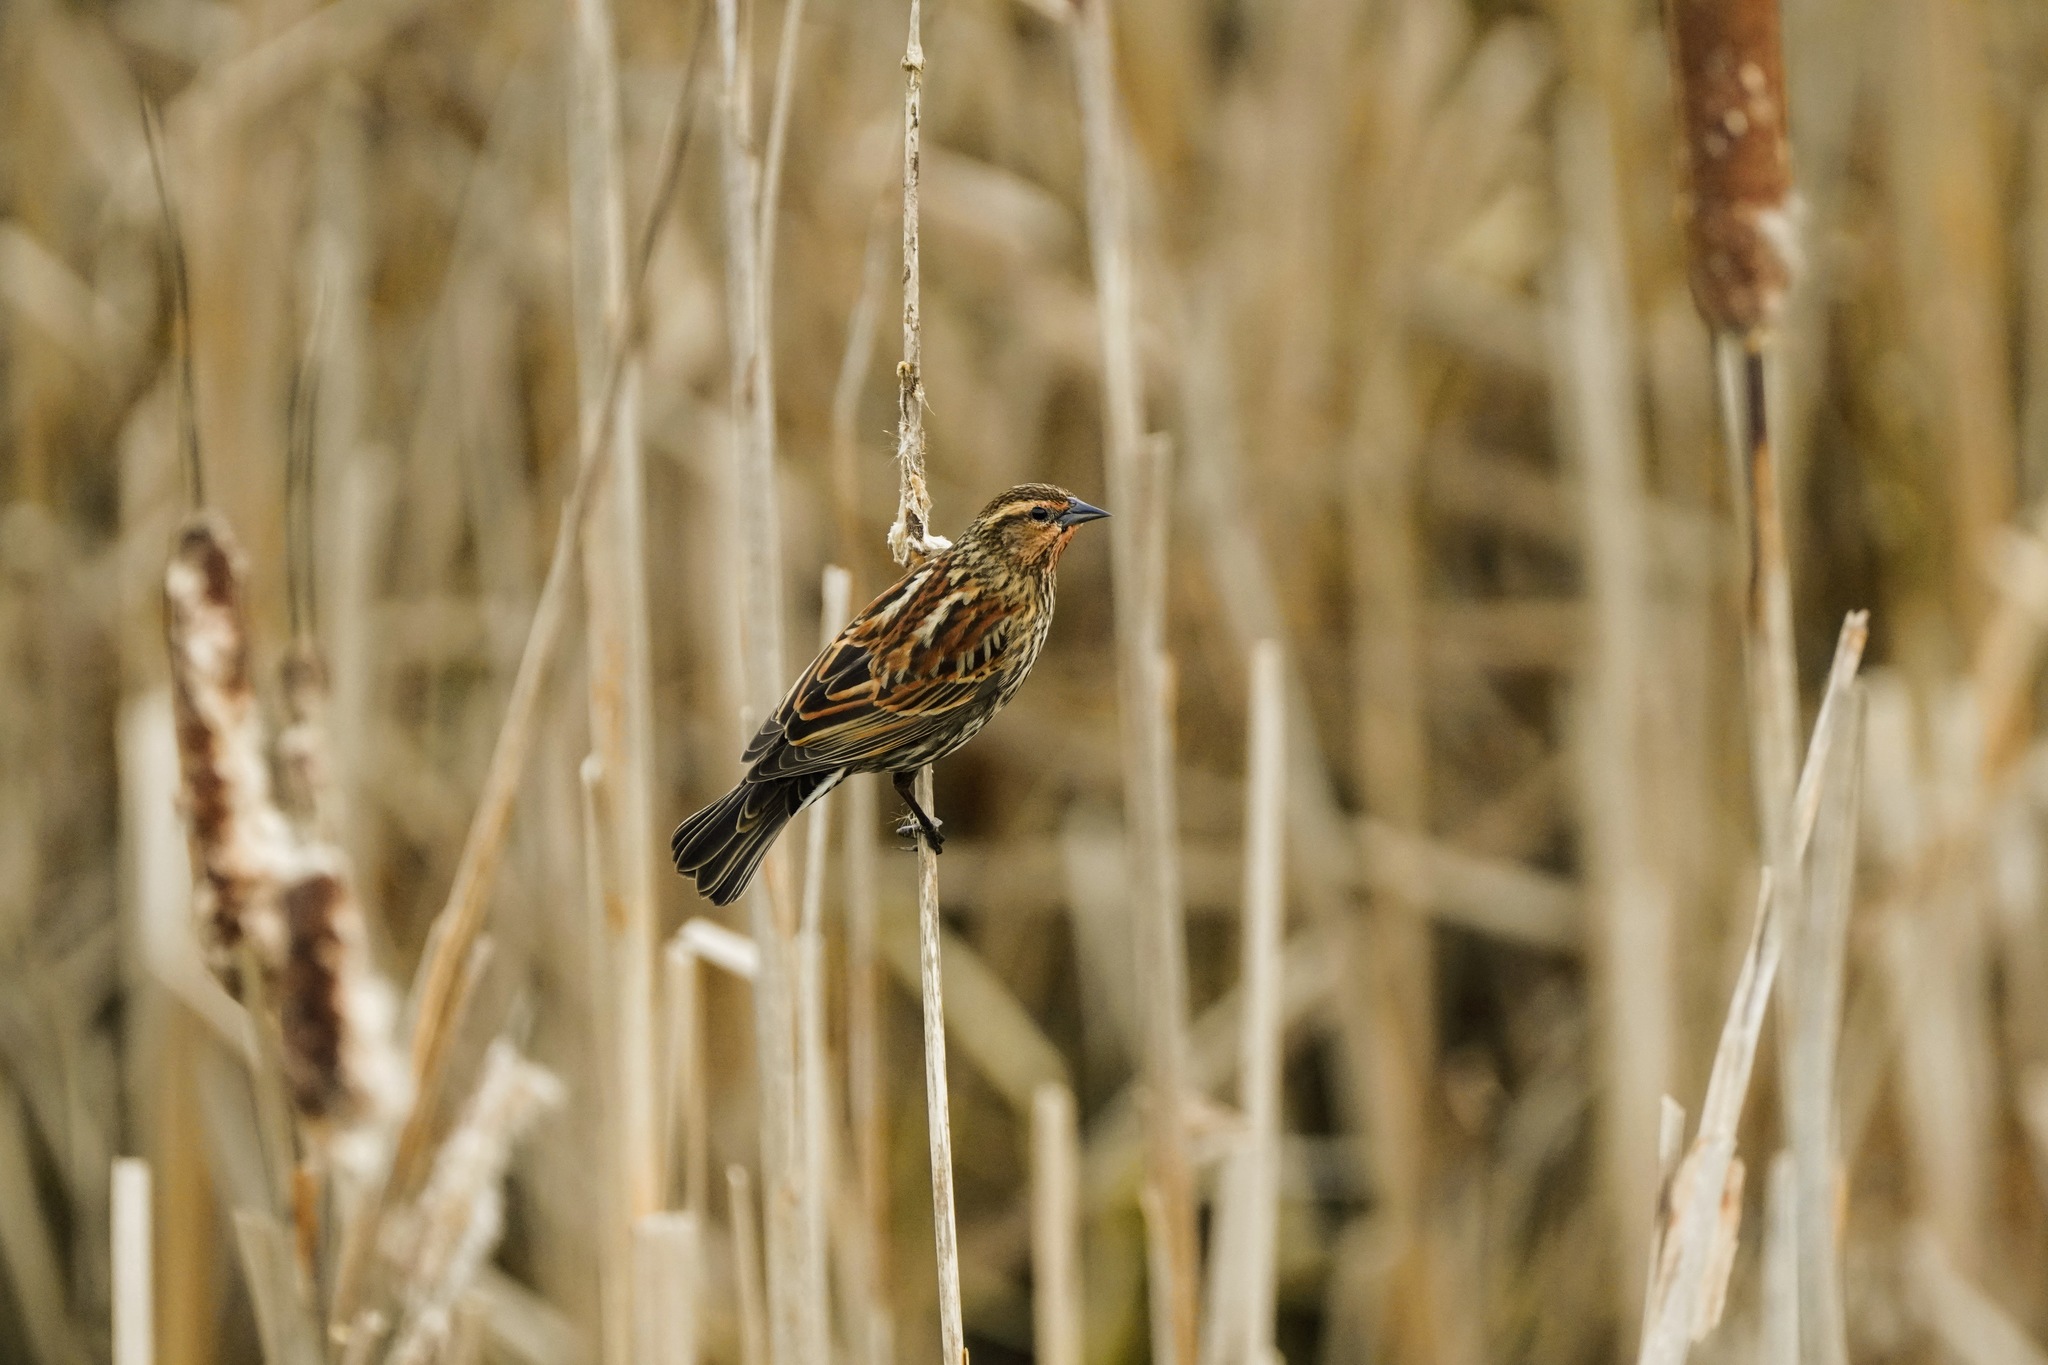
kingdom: Animalia
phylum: Chordata
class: Aves
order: Passeriformes
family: Icteridae
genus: Agelaius
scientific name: Agelaius phoeniceus
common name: Red-winged blackbird
